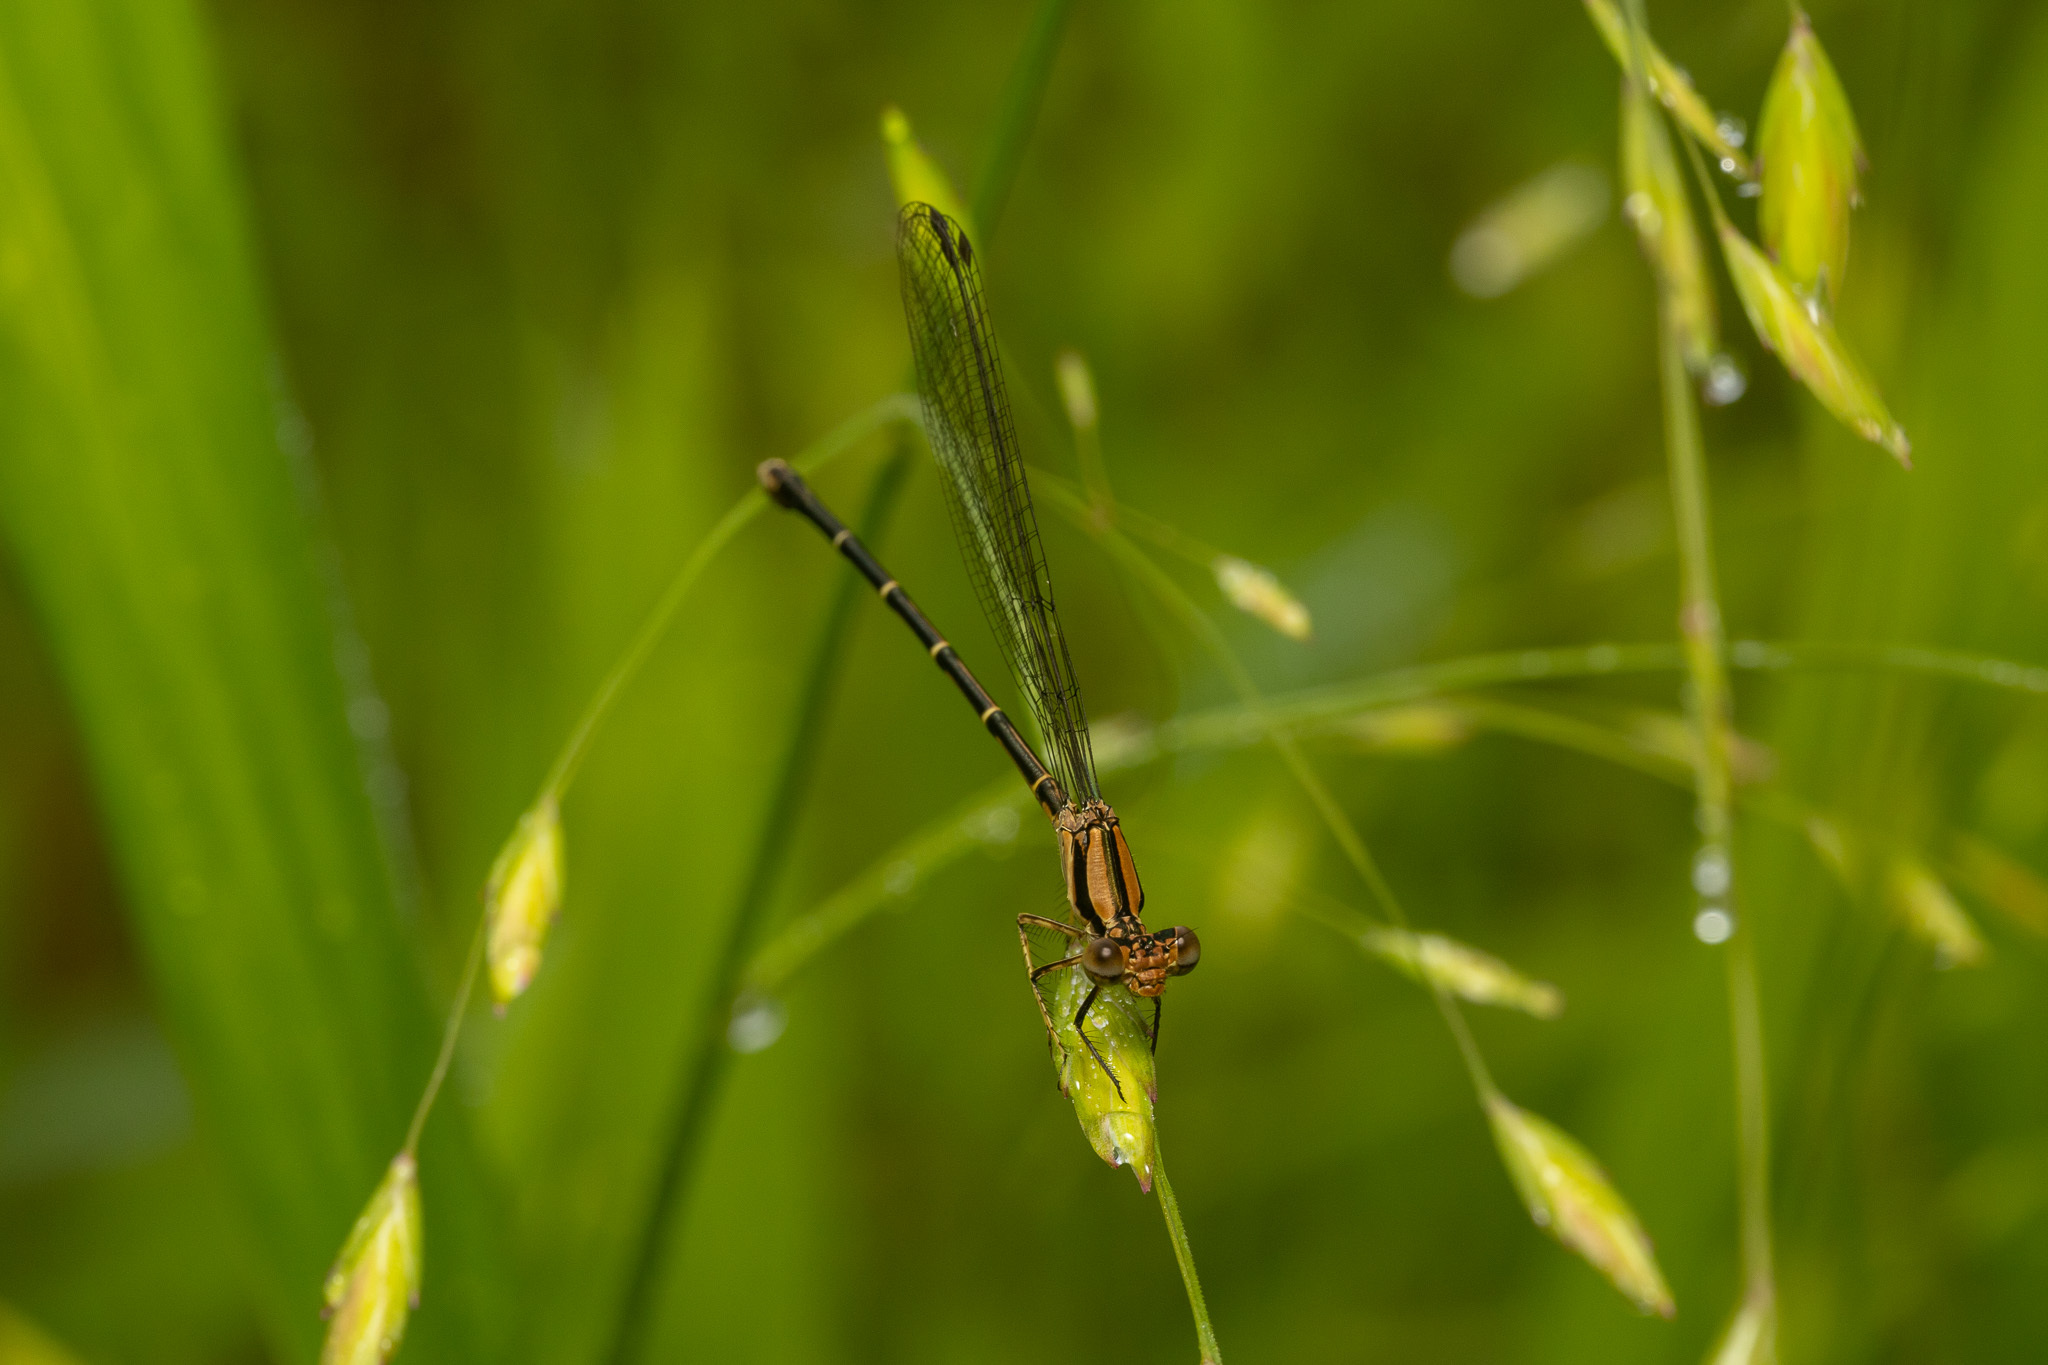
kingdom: Animalia
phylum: Arthropoda
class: Insecta
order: Odonata
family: Coenagrionidae
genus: Argia
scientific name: Argia tibialis
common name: Blue-tipped dancer
